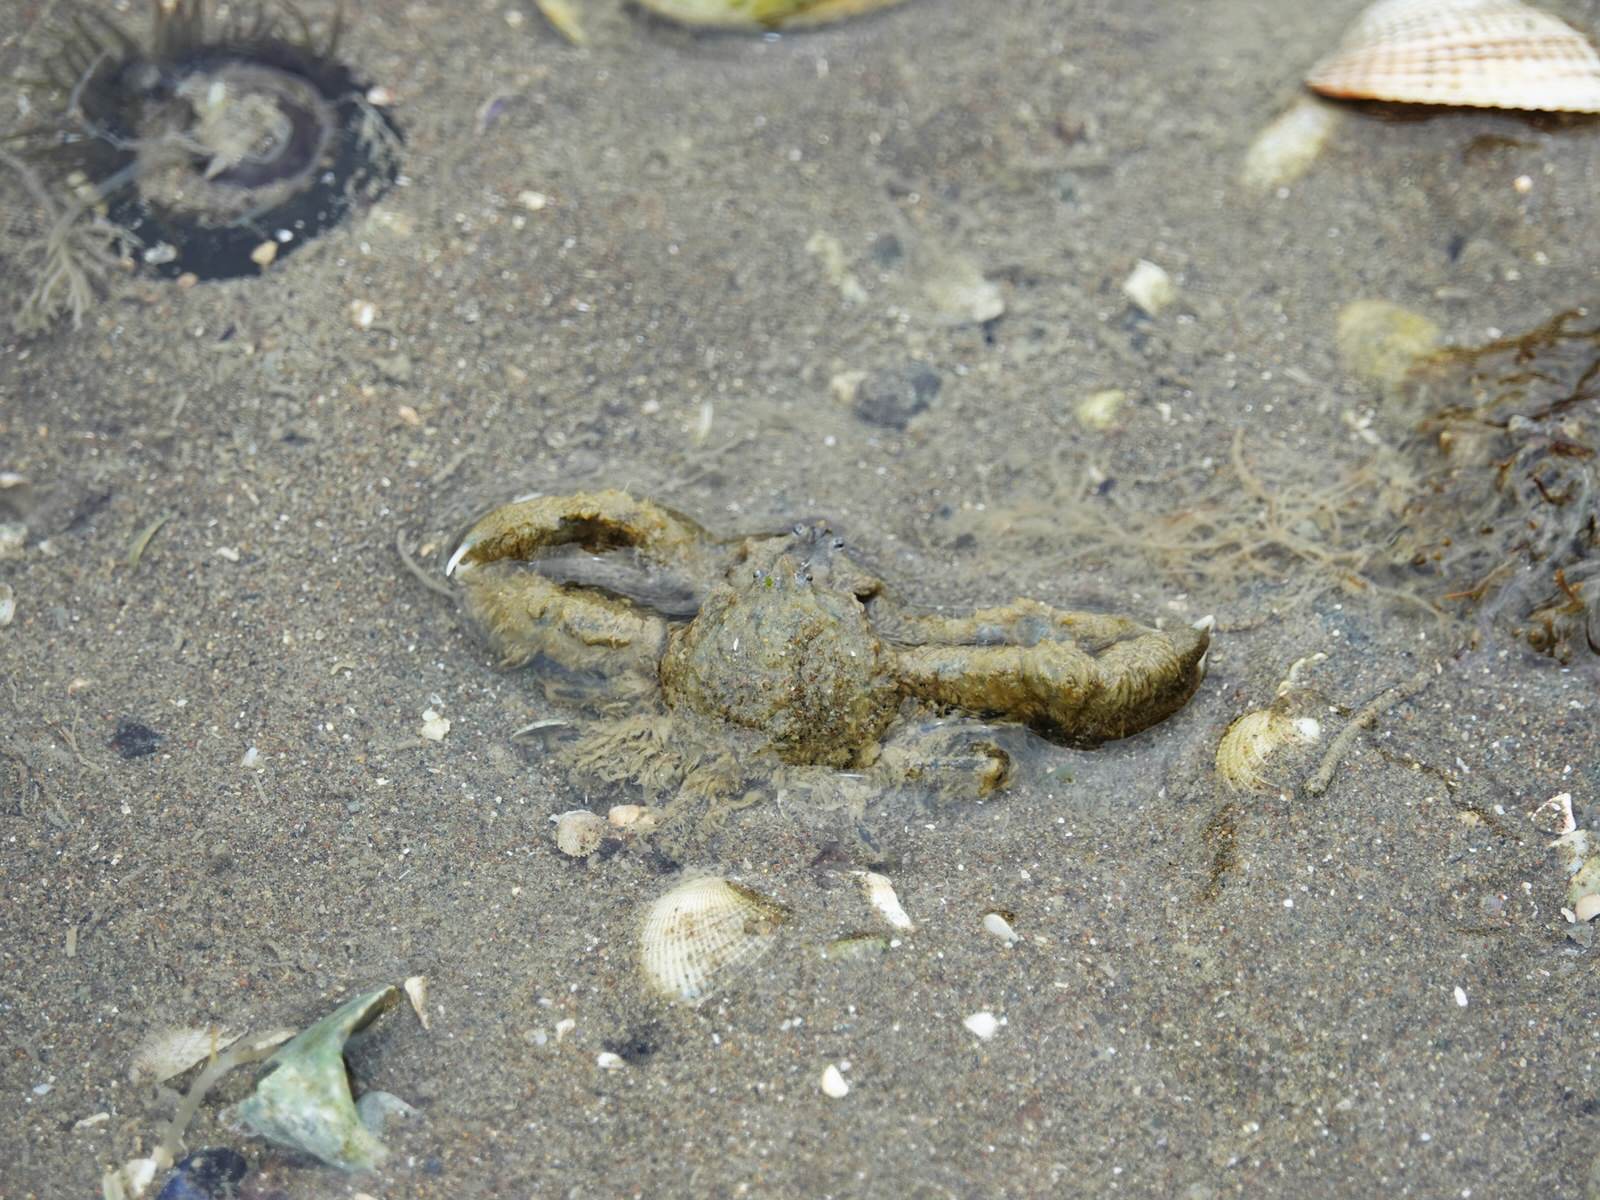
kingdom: Animalia
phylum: Arthropoda
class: Malacostraca
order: Decapoda
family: Hymenosomatidae
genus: Halicarcinus
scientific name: Halicarcinus whitei
